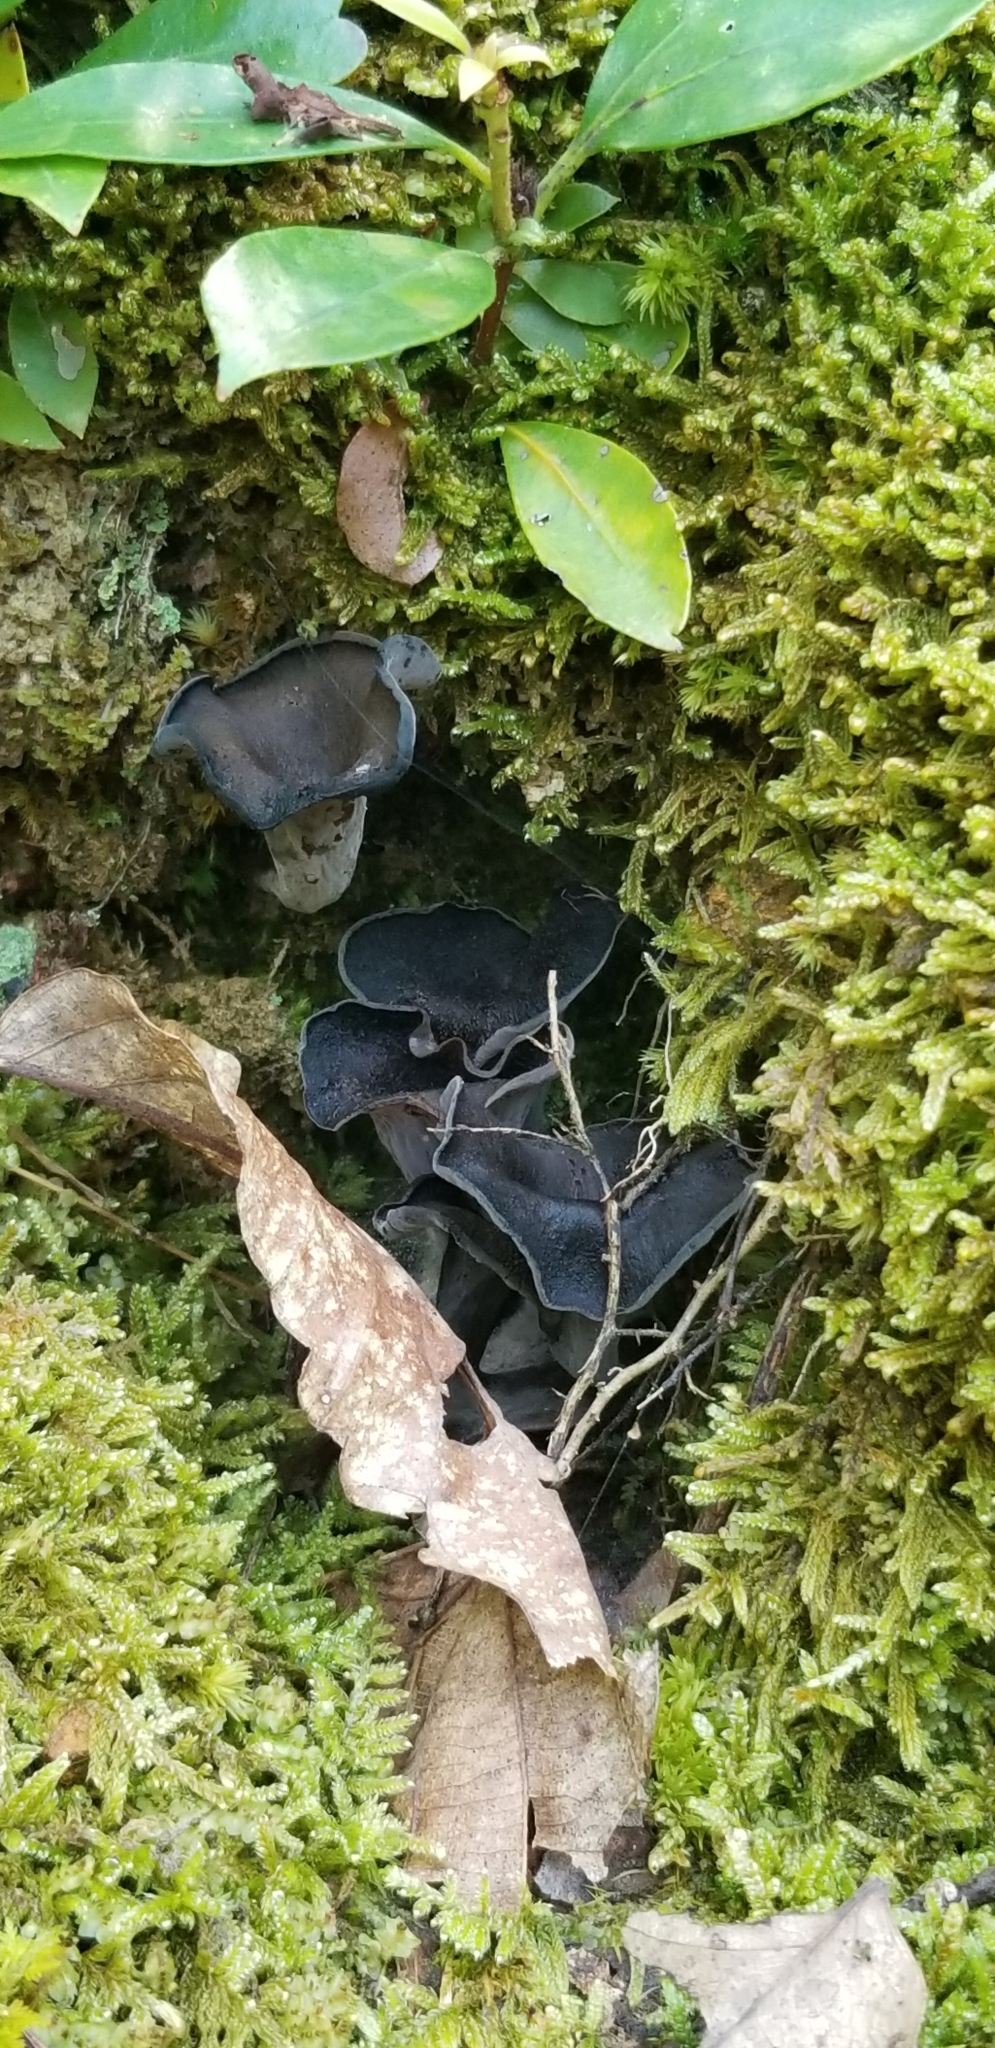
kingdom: Fungi
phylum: Basidiomycota
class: Agaricomycetes
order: Cantharellales
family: Hydnaceae
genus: Craterellus
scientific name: Craterellus cornucopioides
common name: Horn of plenty
